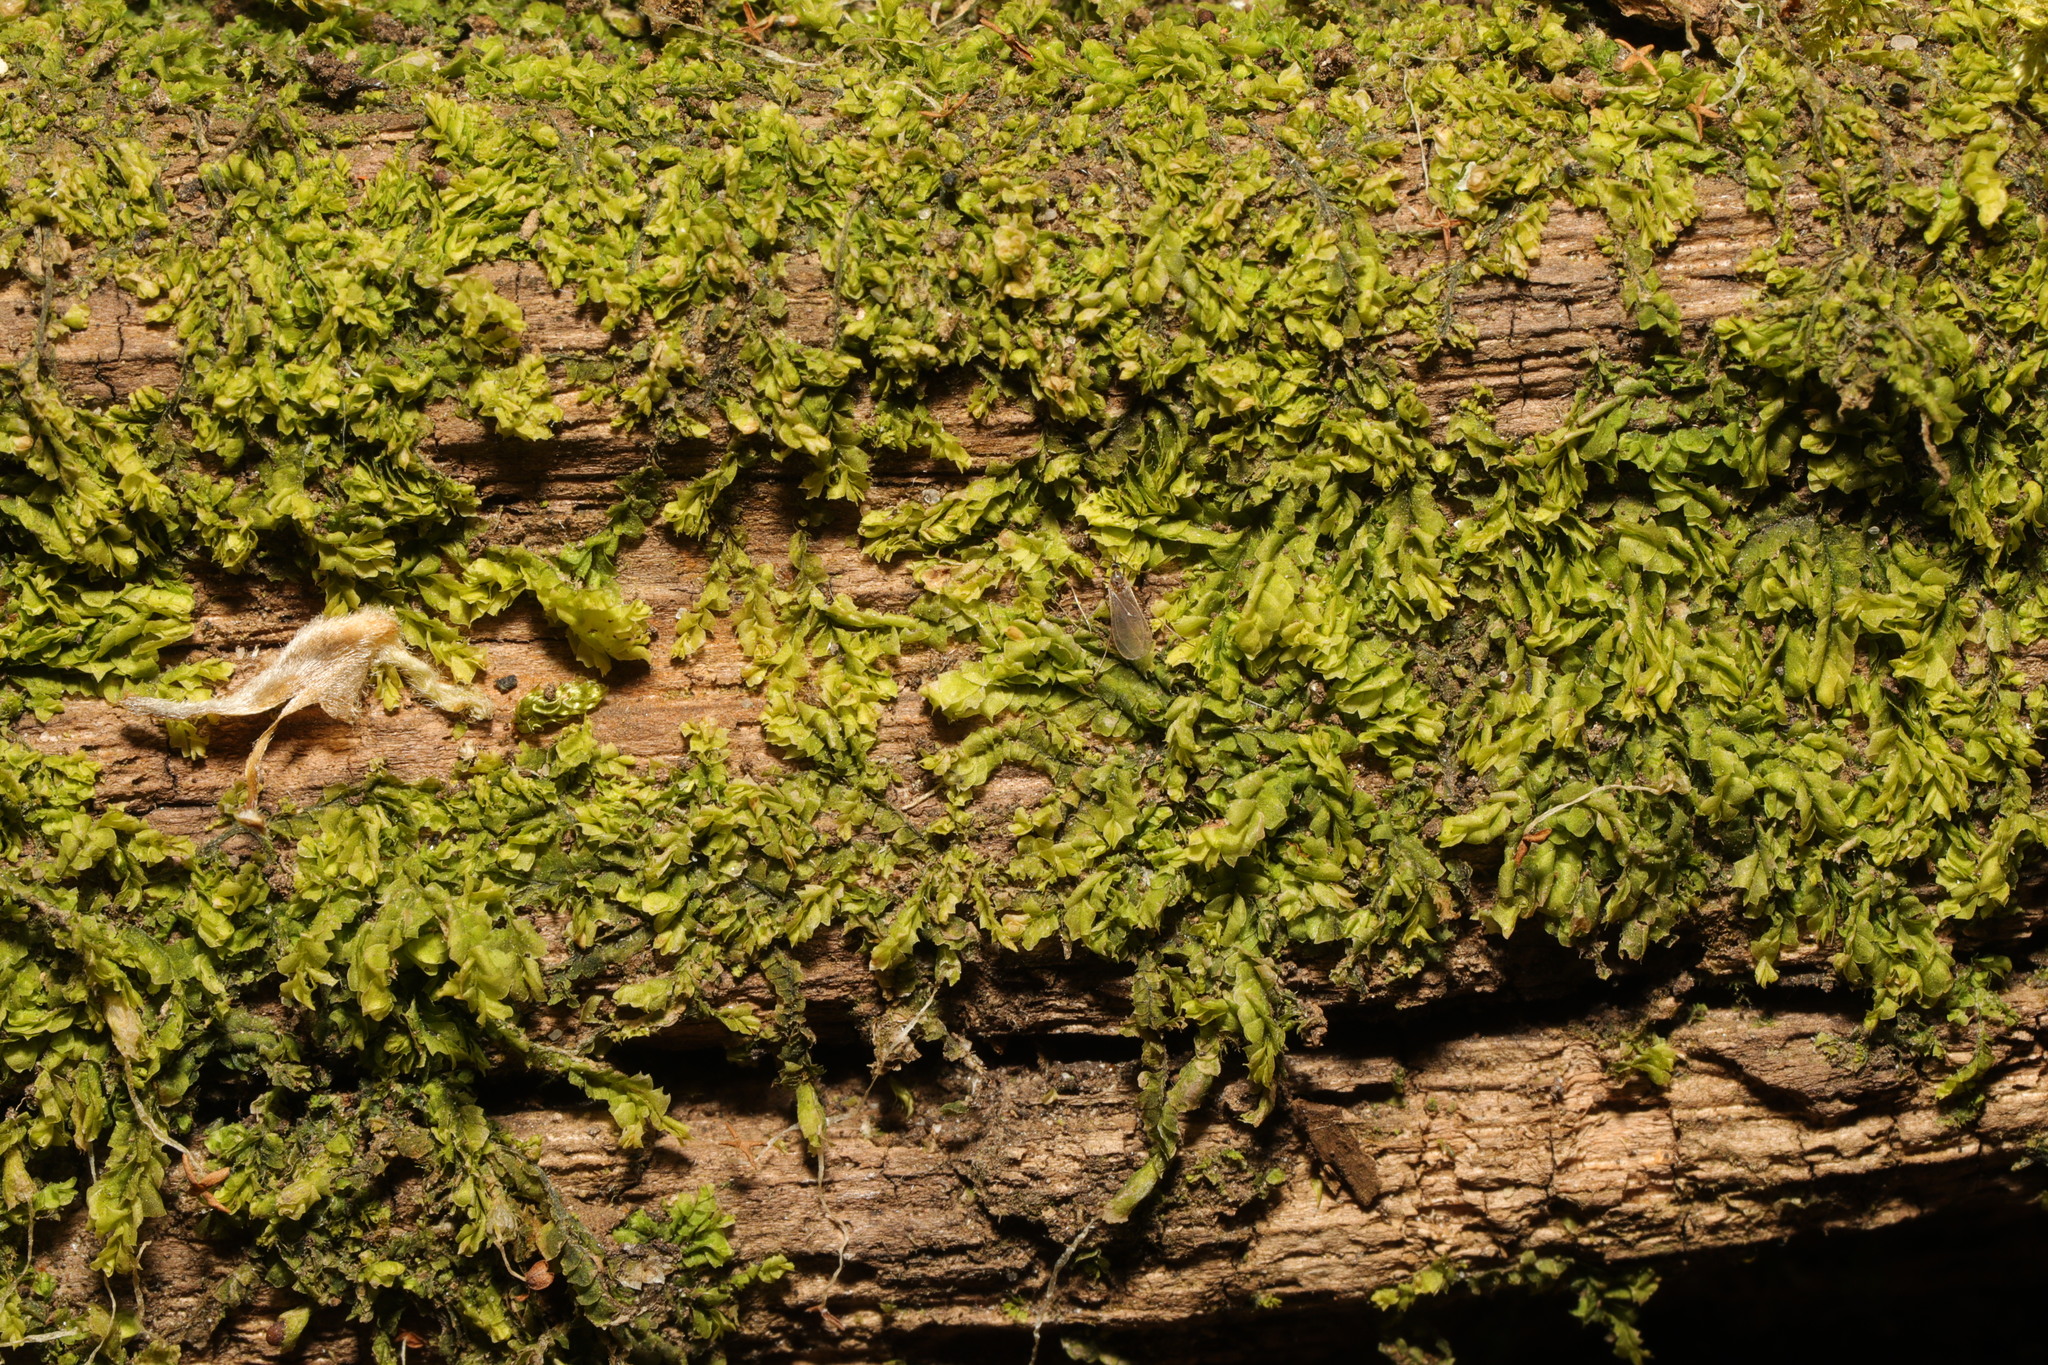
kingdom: Plantae
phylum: Marchantiophyta
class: Jungermanniopsida
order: Jungermanniales
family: Lophocoleaceae
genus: Lophocolea
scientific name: Lophocolea heterophylla
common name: Variable-leaved crestwort
